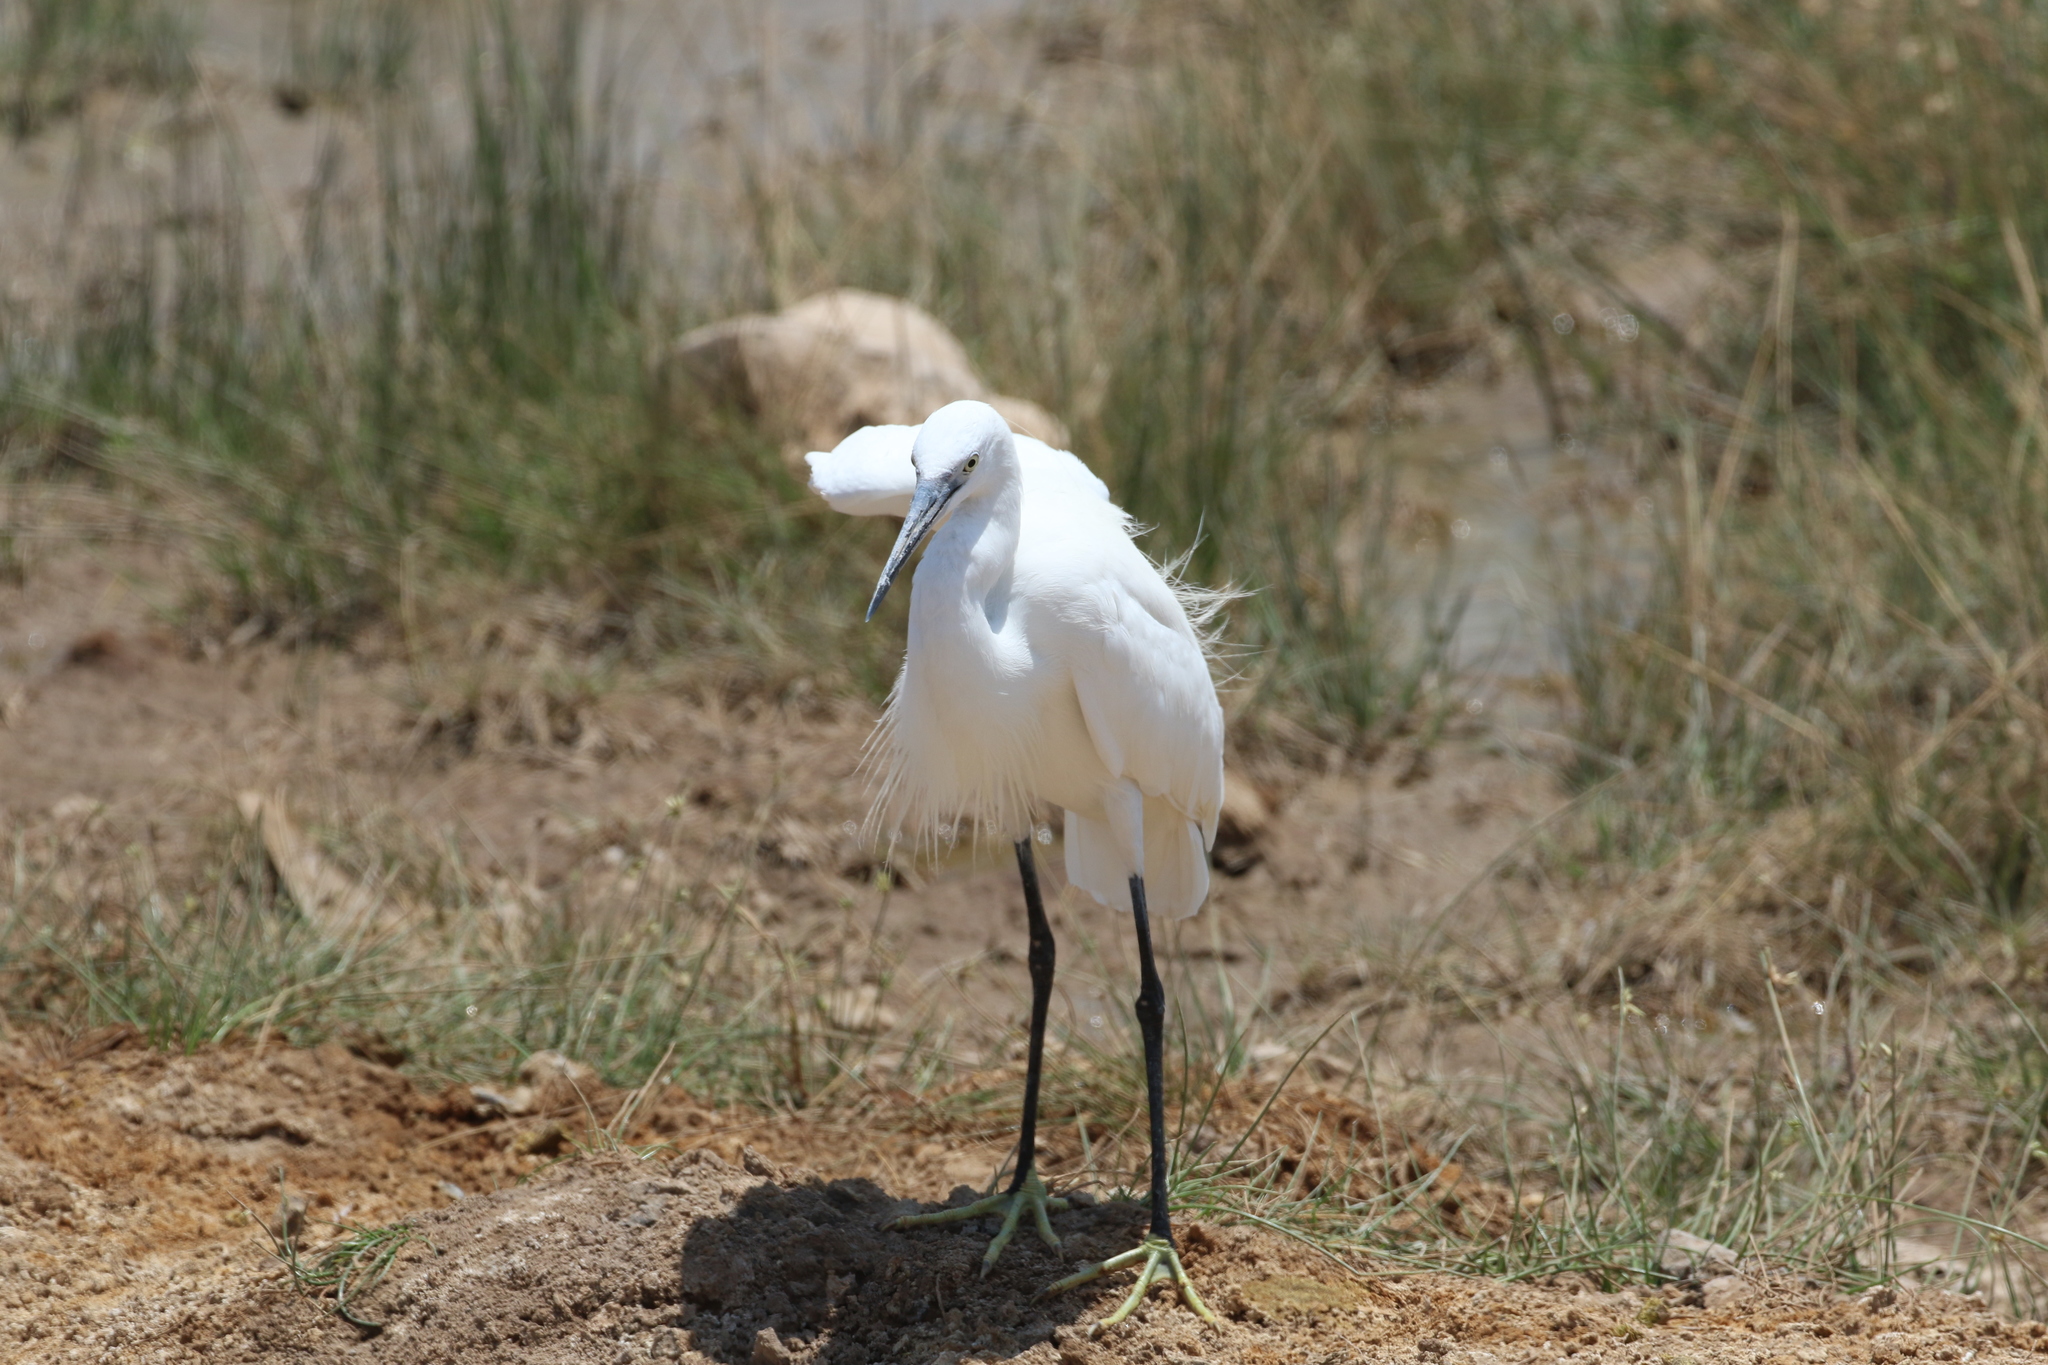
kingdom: Animalia
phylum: Chordata
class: Aves
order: Pelecaniformes
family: Ardeidae
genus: Egretta
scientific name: Egretta garzetta
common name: Little egret
